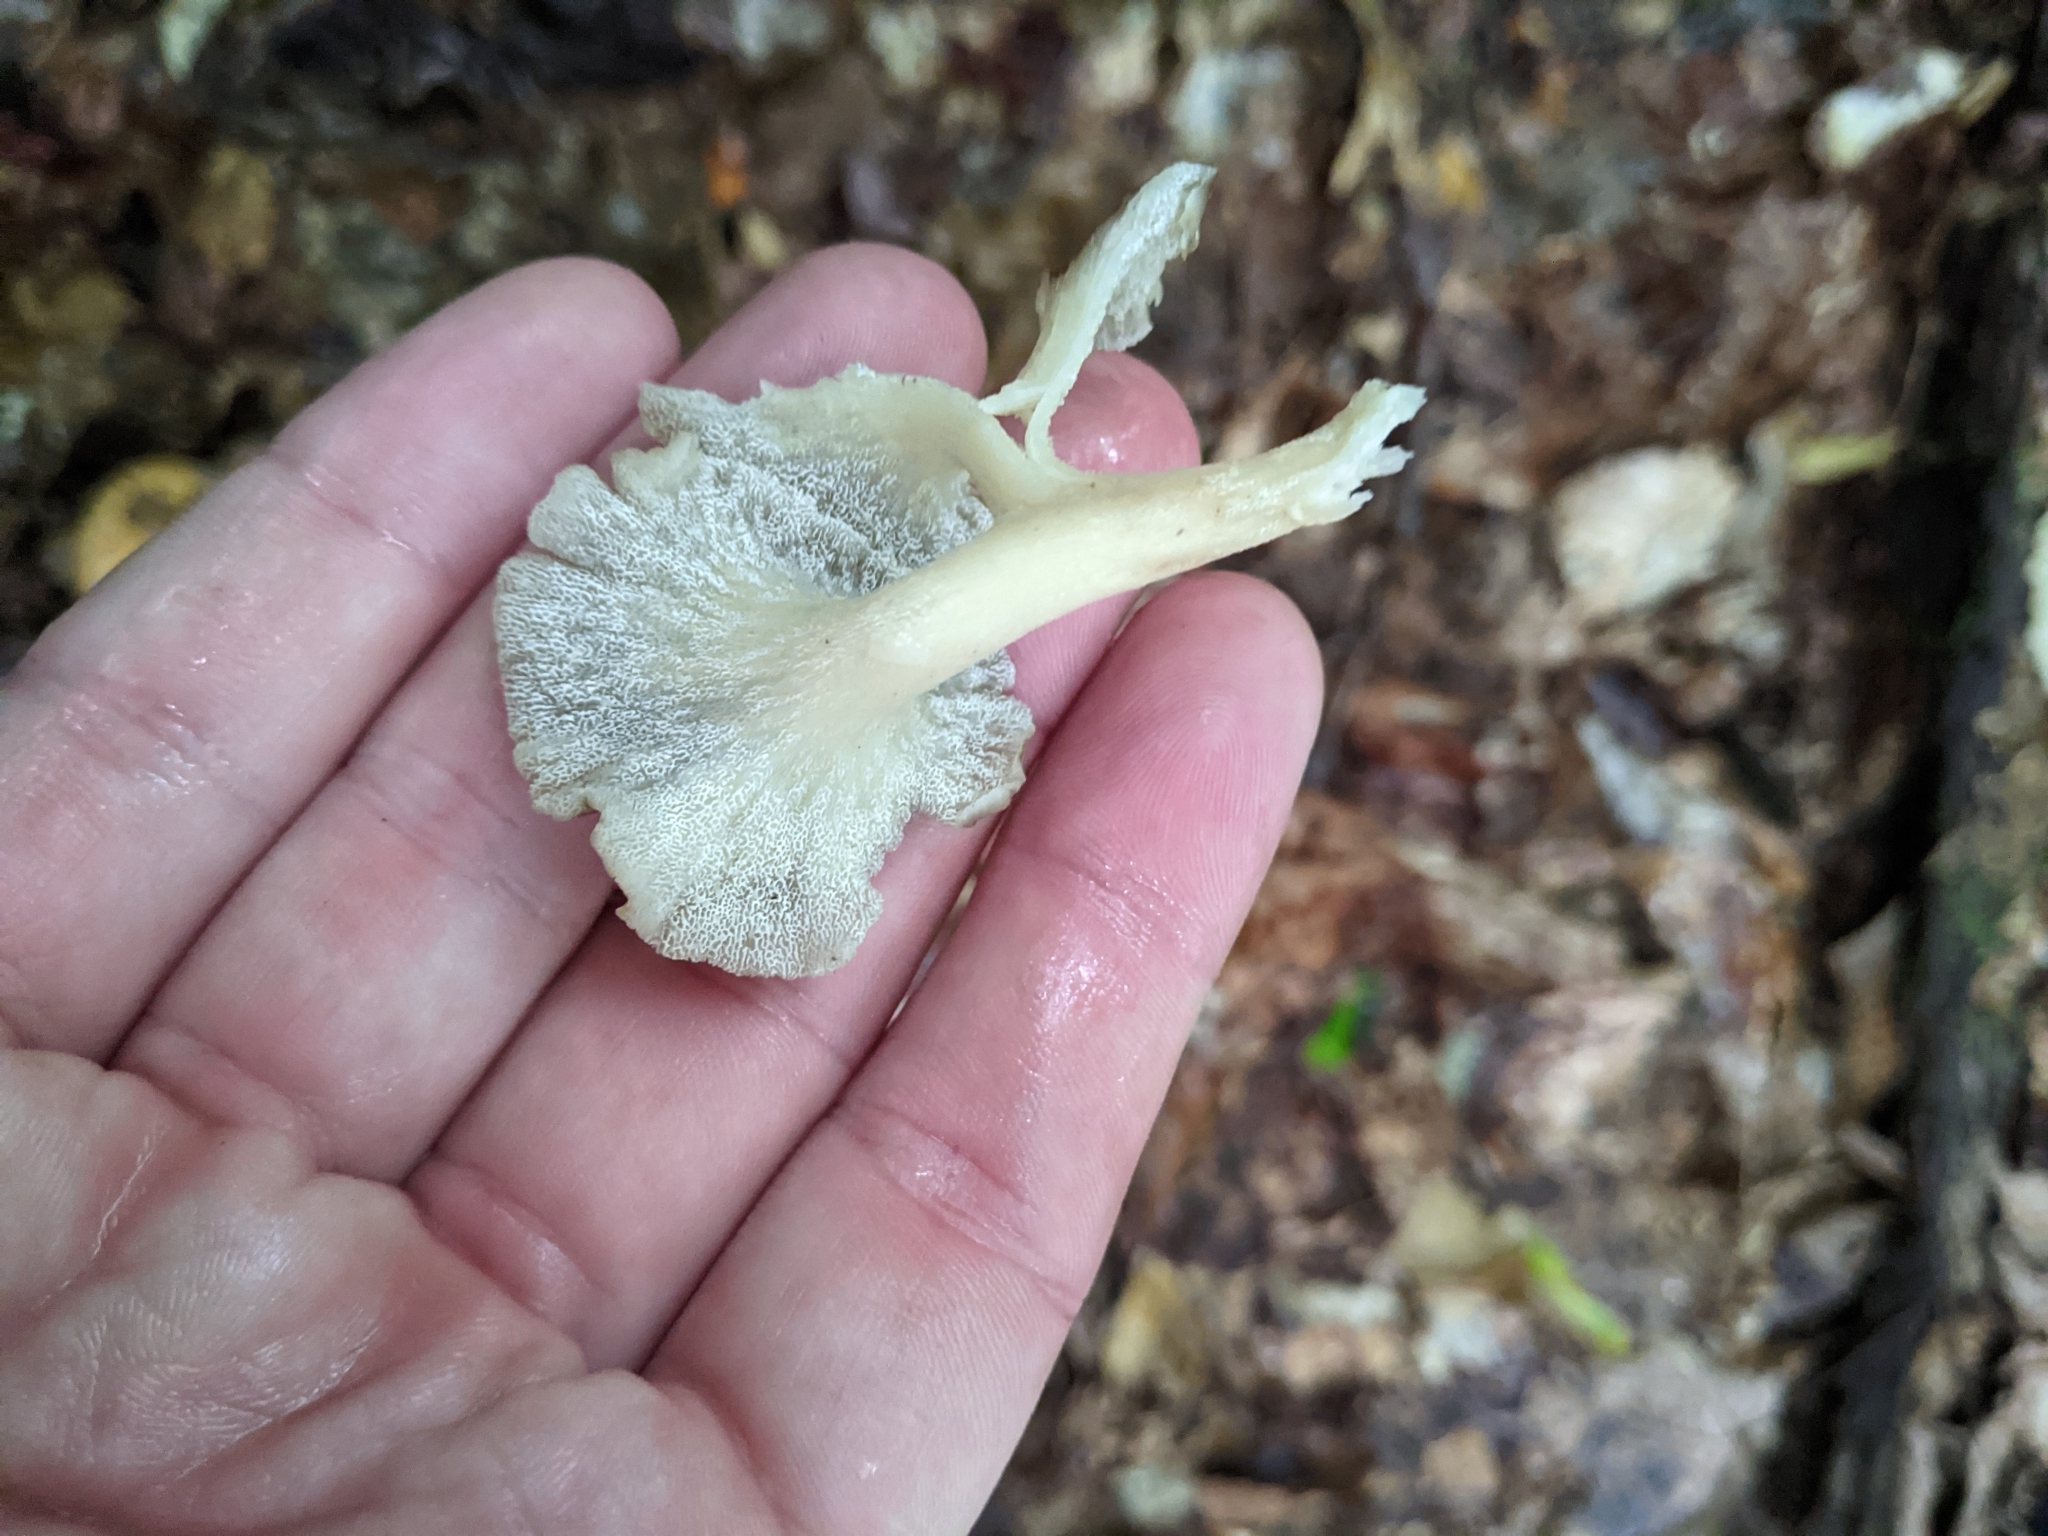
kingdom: Fungi
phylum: Basidiomycota
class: Agaricomycetes
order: Polyporales
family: Polyporaceae
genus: Polyporus
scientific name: Polyporus umbellatus
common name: Umbrella polypore
